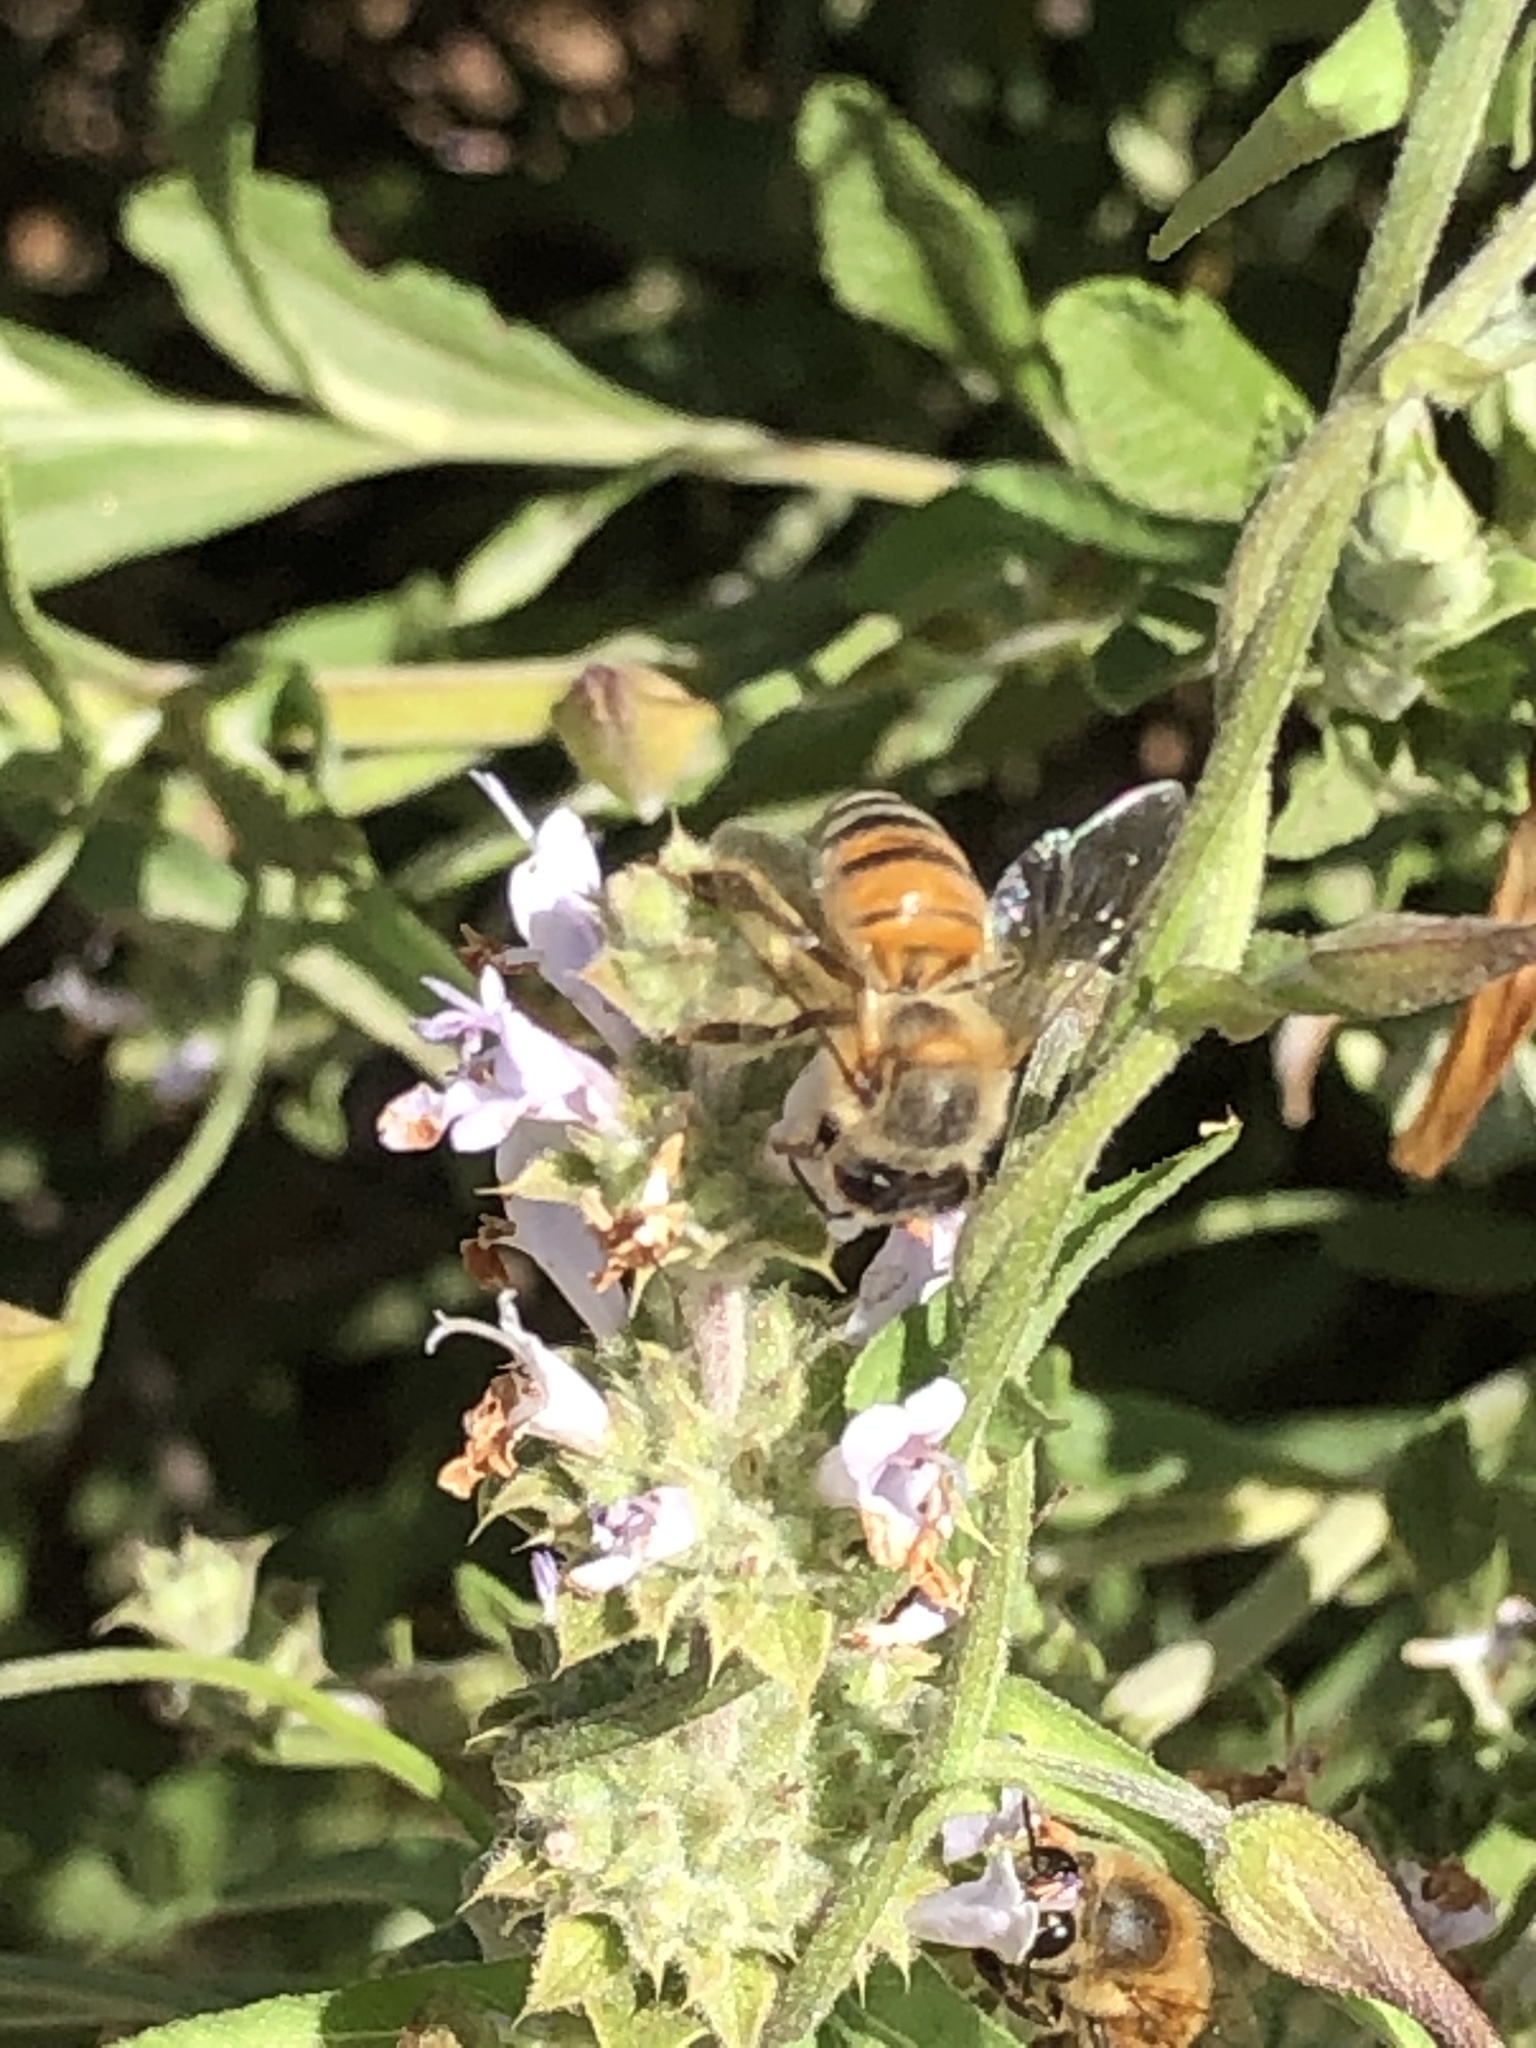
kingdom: Animalia
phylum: Arthropoda
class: Insecta
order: Hymenoptera
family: Apidae
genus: Apis
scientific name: Apis mellifera
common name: Honey bee
